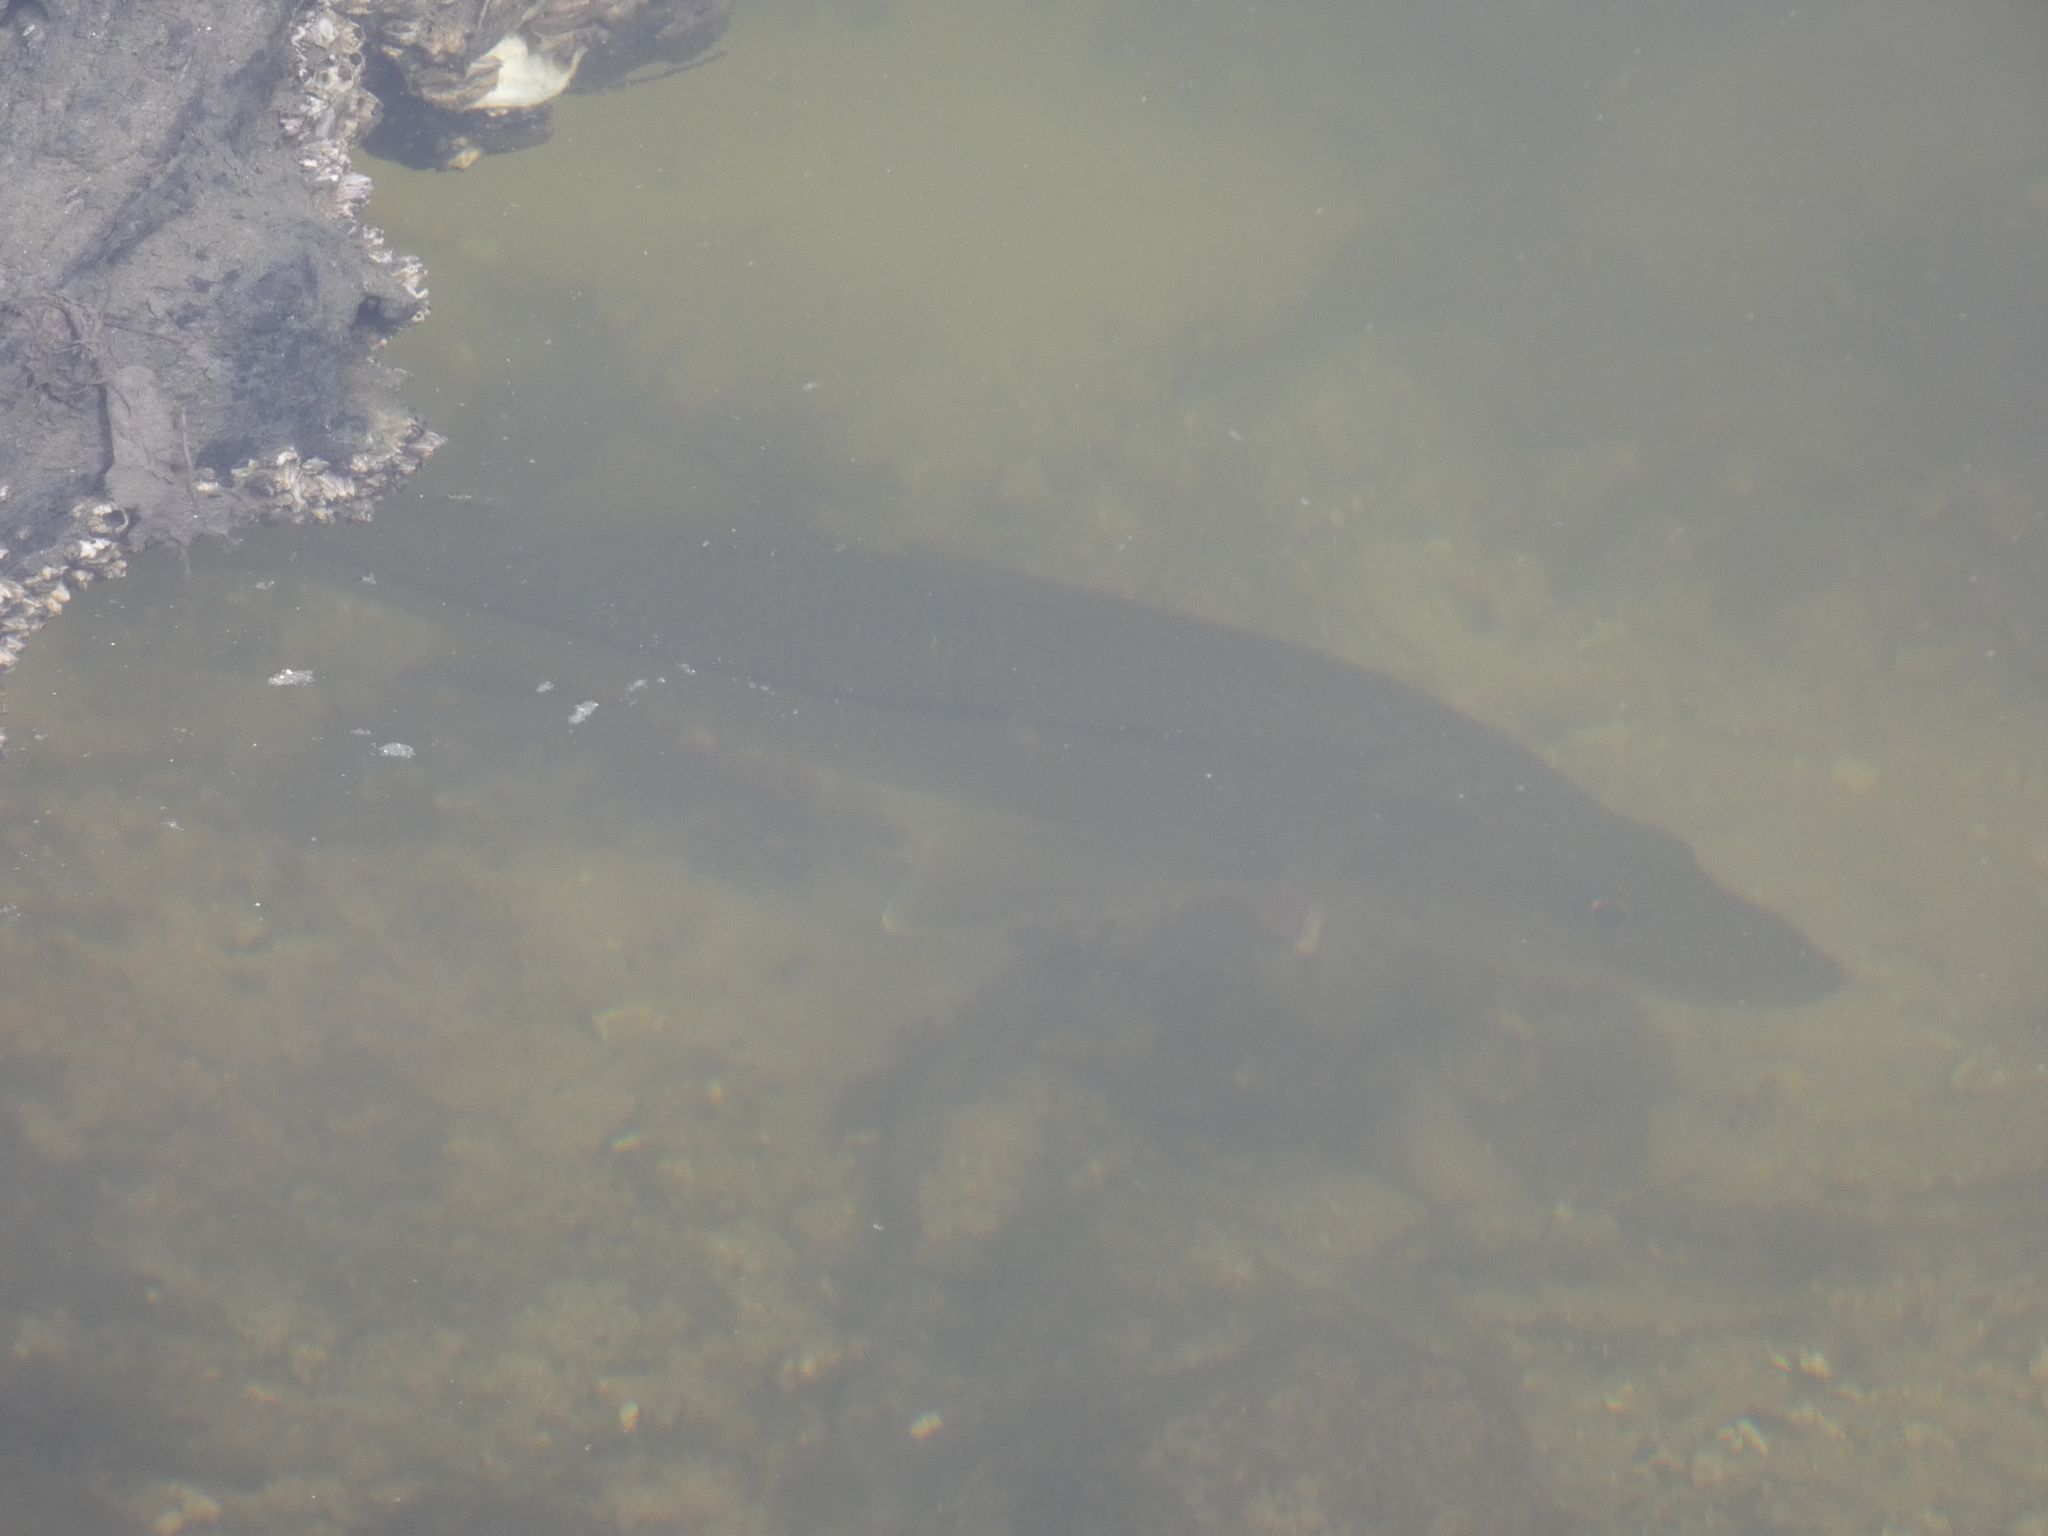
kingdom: Animalia
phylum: Chordata
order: Perciformes
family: Centropomidae
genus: Centropomus
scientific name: Centropomus undecimalis
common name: Snook
